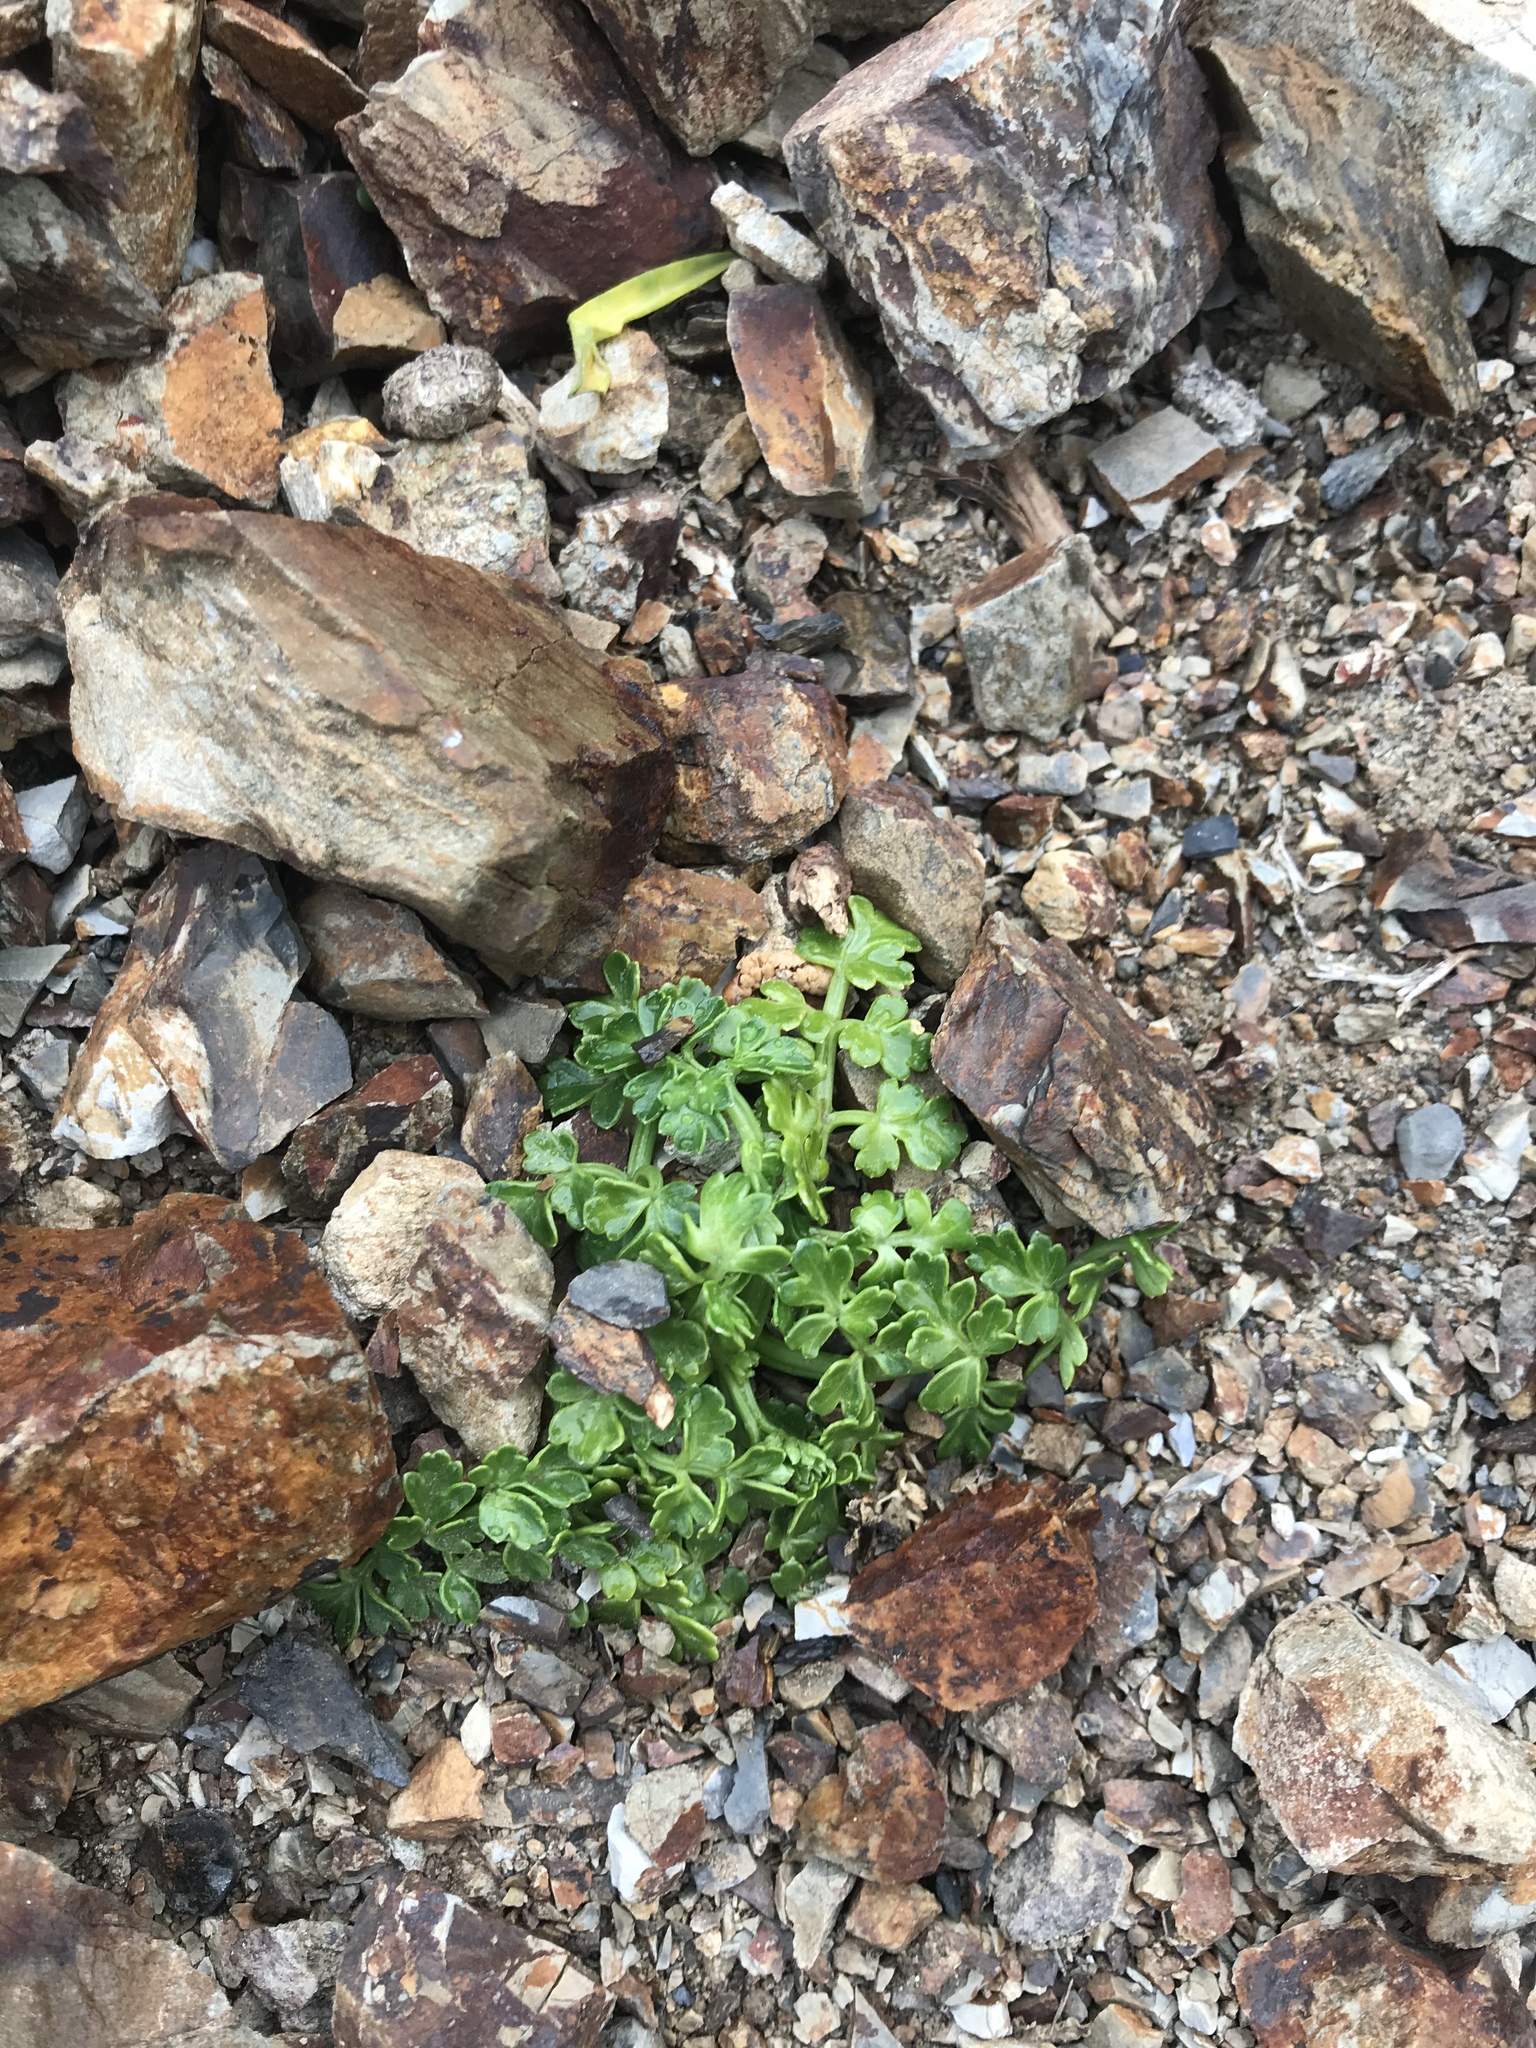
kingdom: Plantae
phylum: Tracheophyta
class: Magnoliopsida
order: Apiales
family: Apiaceae
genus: Apium
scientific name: Apium prostratum
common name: Prostrate marshwort
